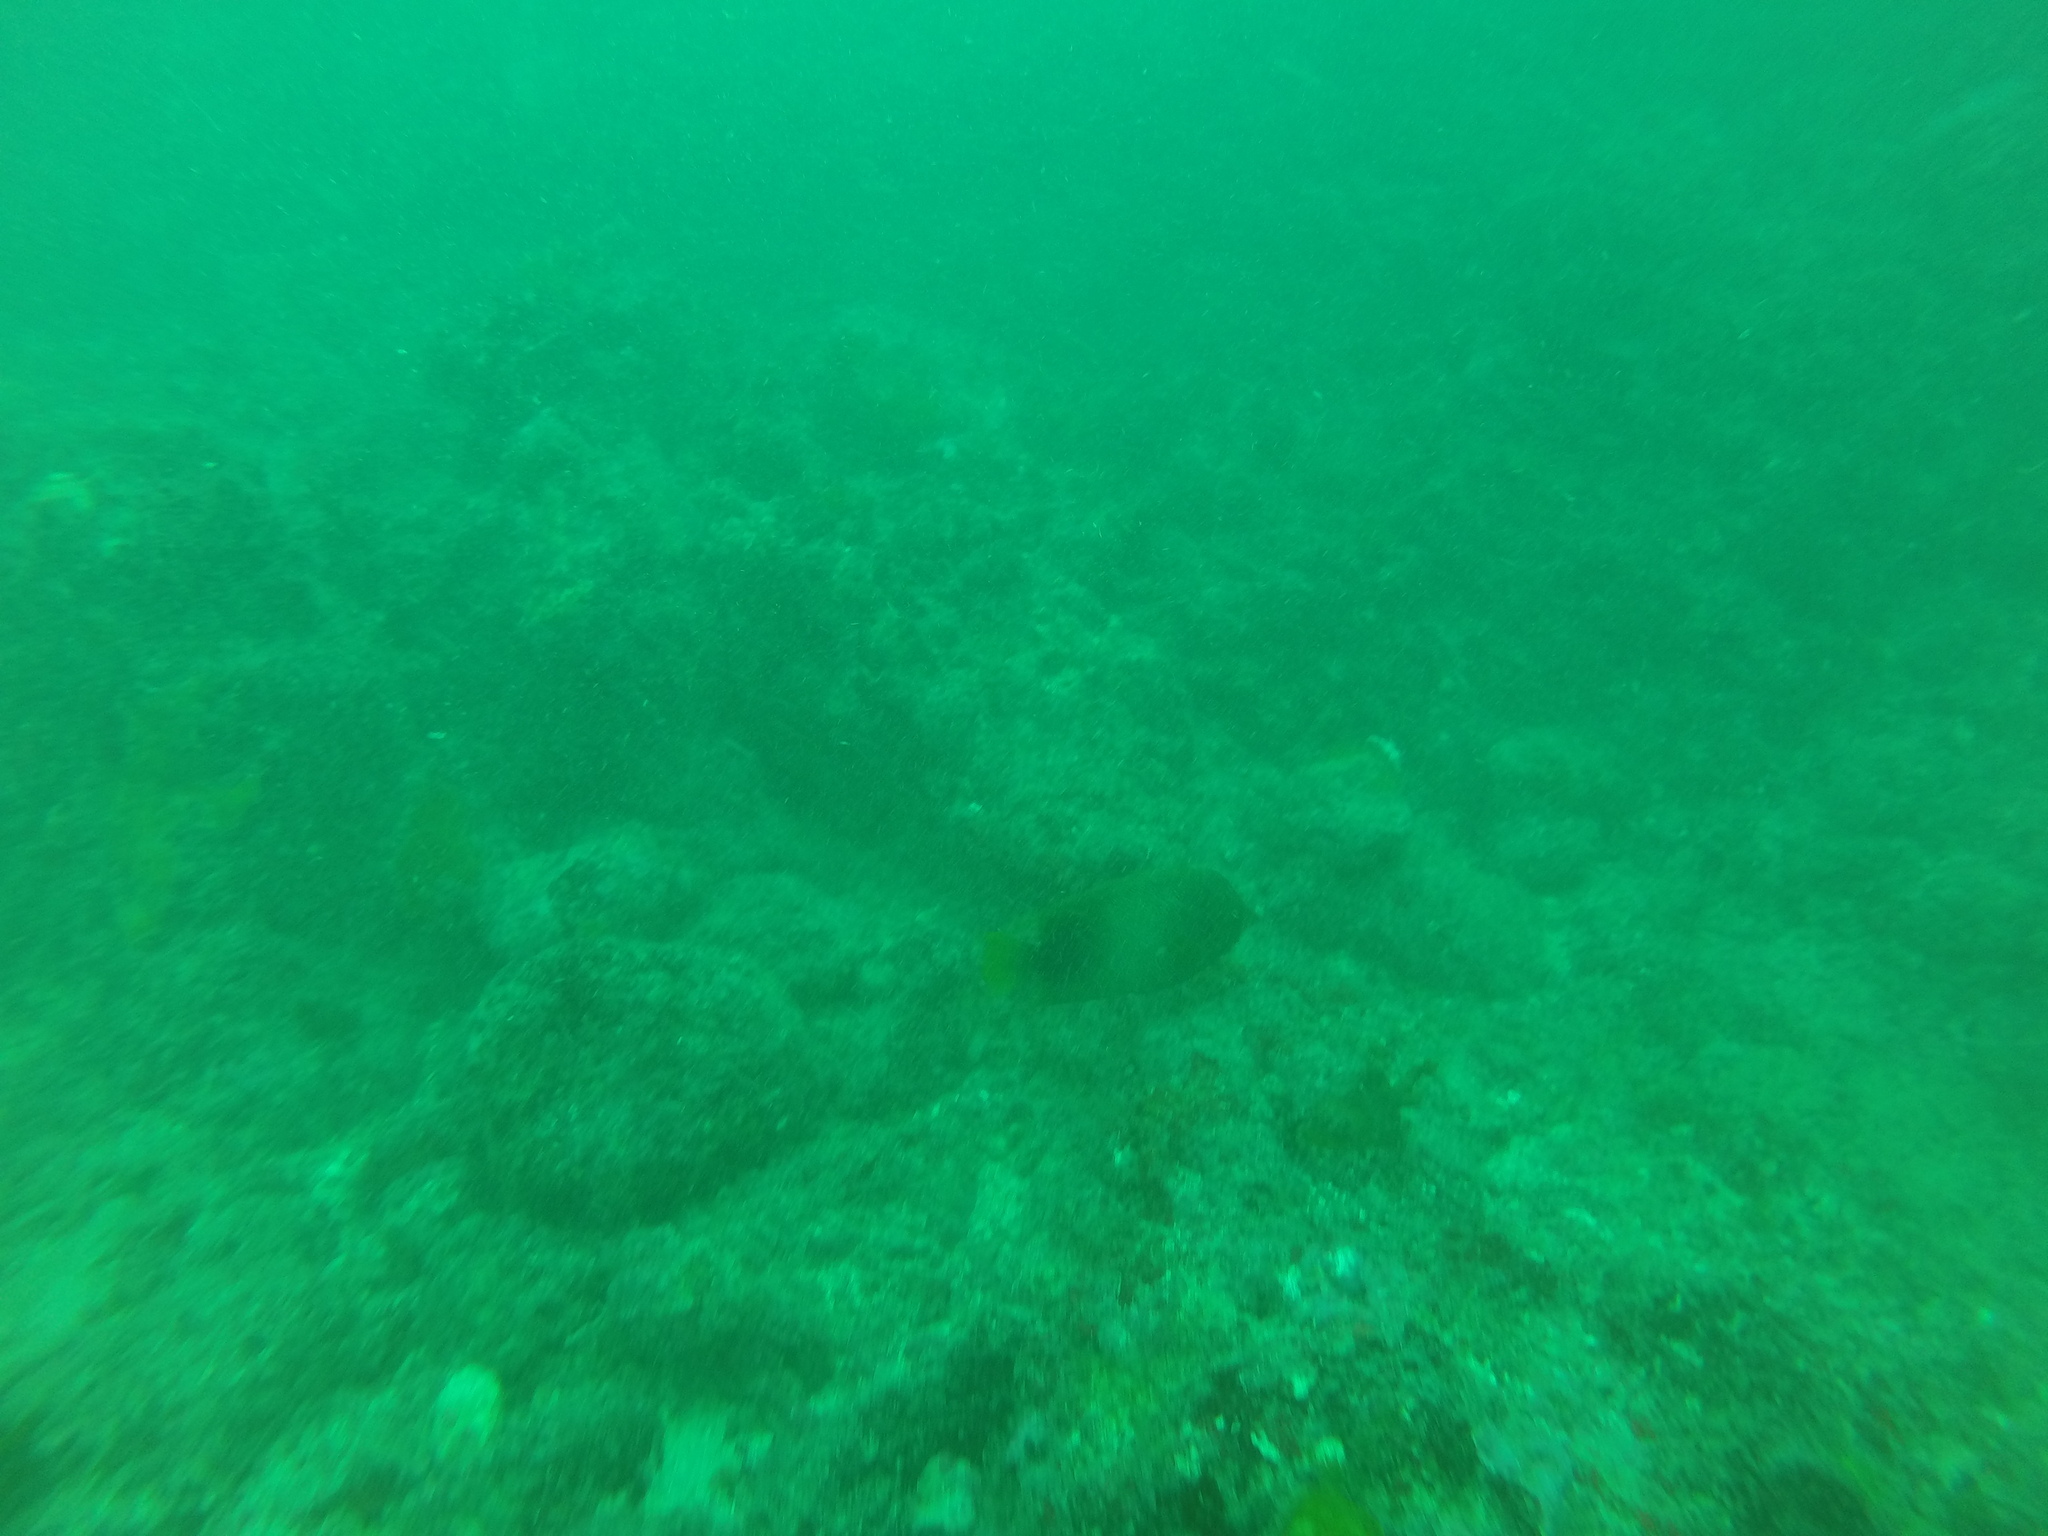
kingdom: Animalia
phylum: Chordata
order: Perciformes
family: Pomacanthidae
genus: Holacanthus
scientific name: Holacanthus africanus
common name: Guinean angelfish
